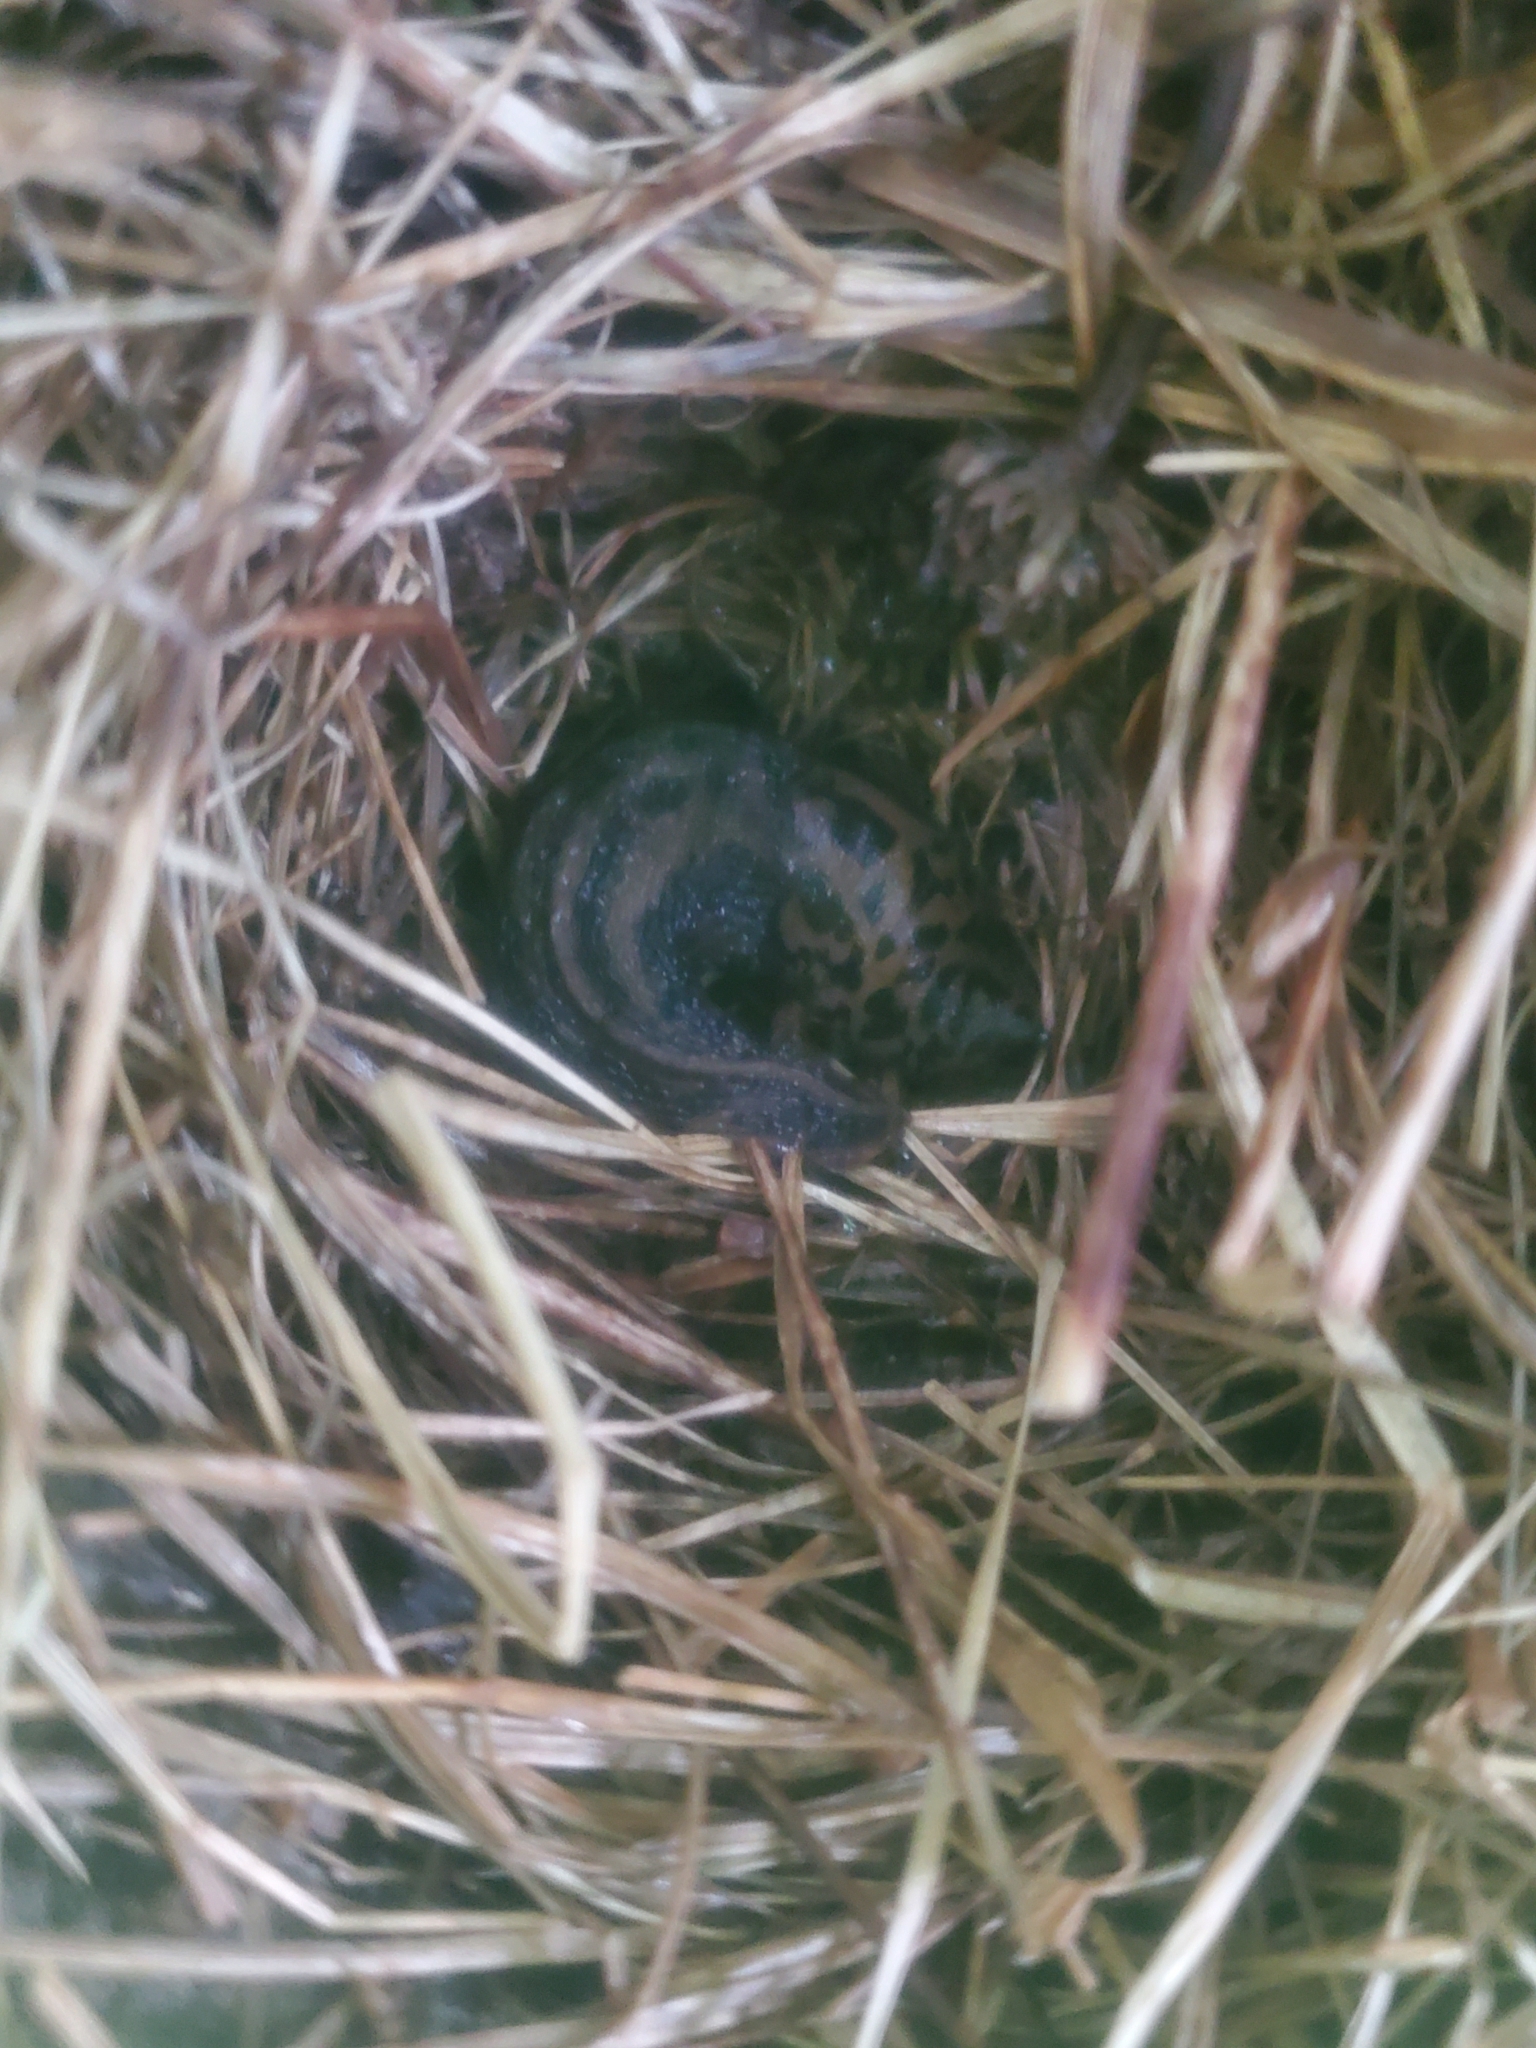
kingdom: Animalia
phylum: Mollusca
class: Gastropoda
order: Stylommatophora
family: Limacidae
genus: Limax
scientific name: Limax maximus
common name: Great grey slug
